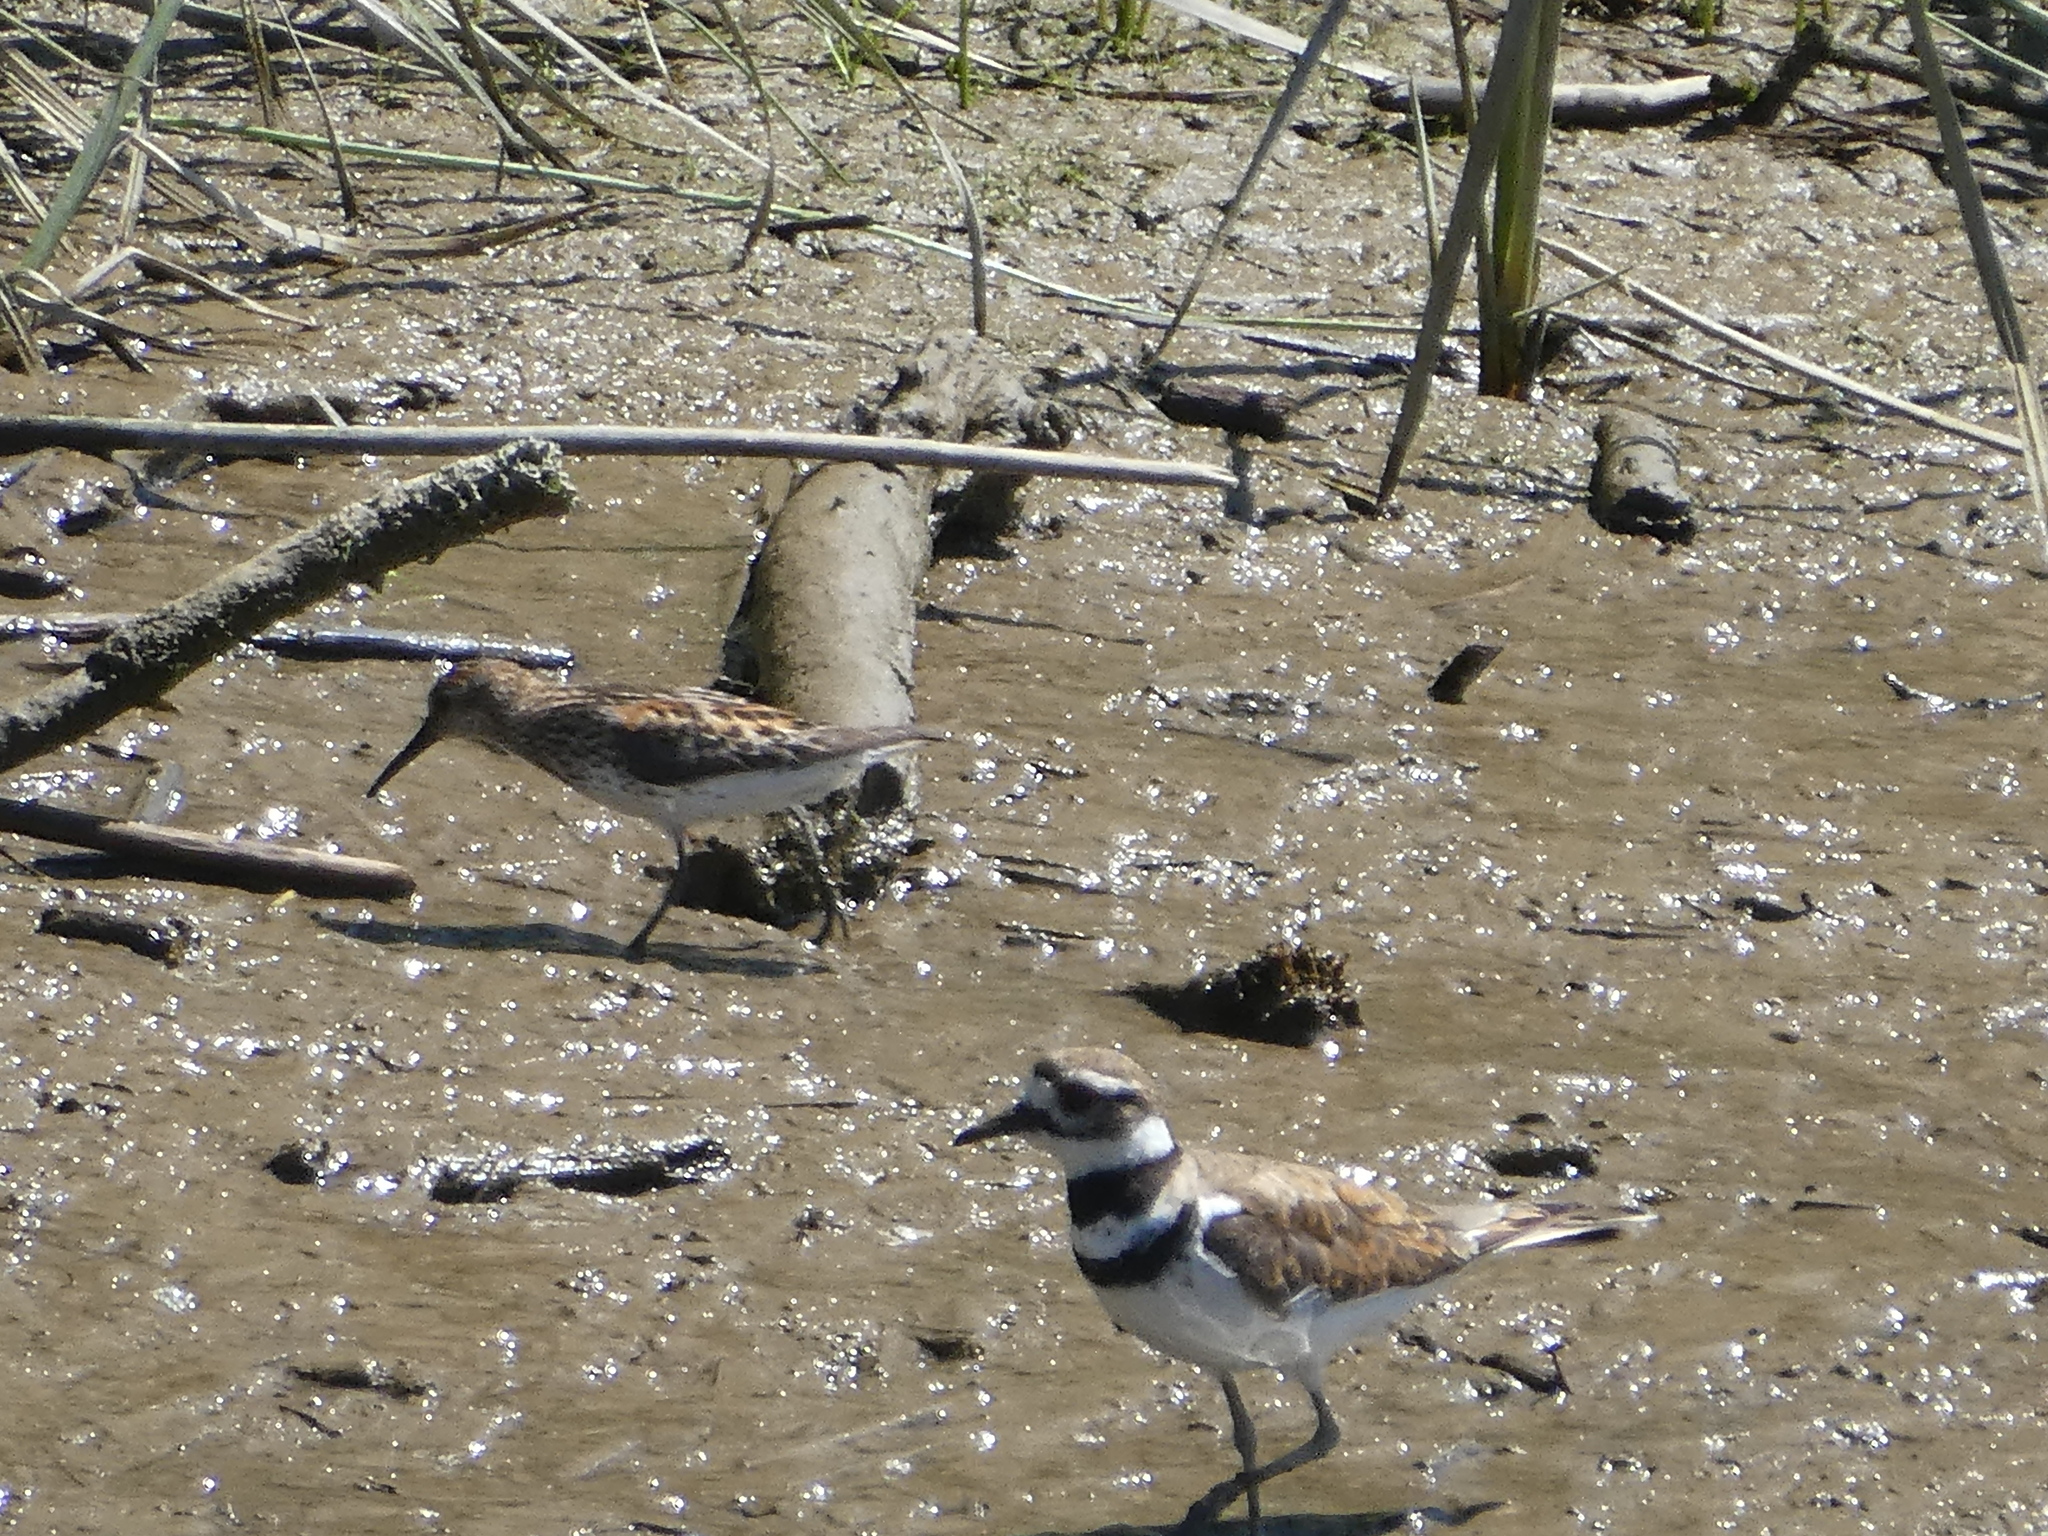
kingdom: Animalia
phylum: Chordata
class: Aves
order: Charadriiformes
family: Scolopacidae
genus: Calidris
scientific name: Calidris mauri
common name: Western sandpiper
